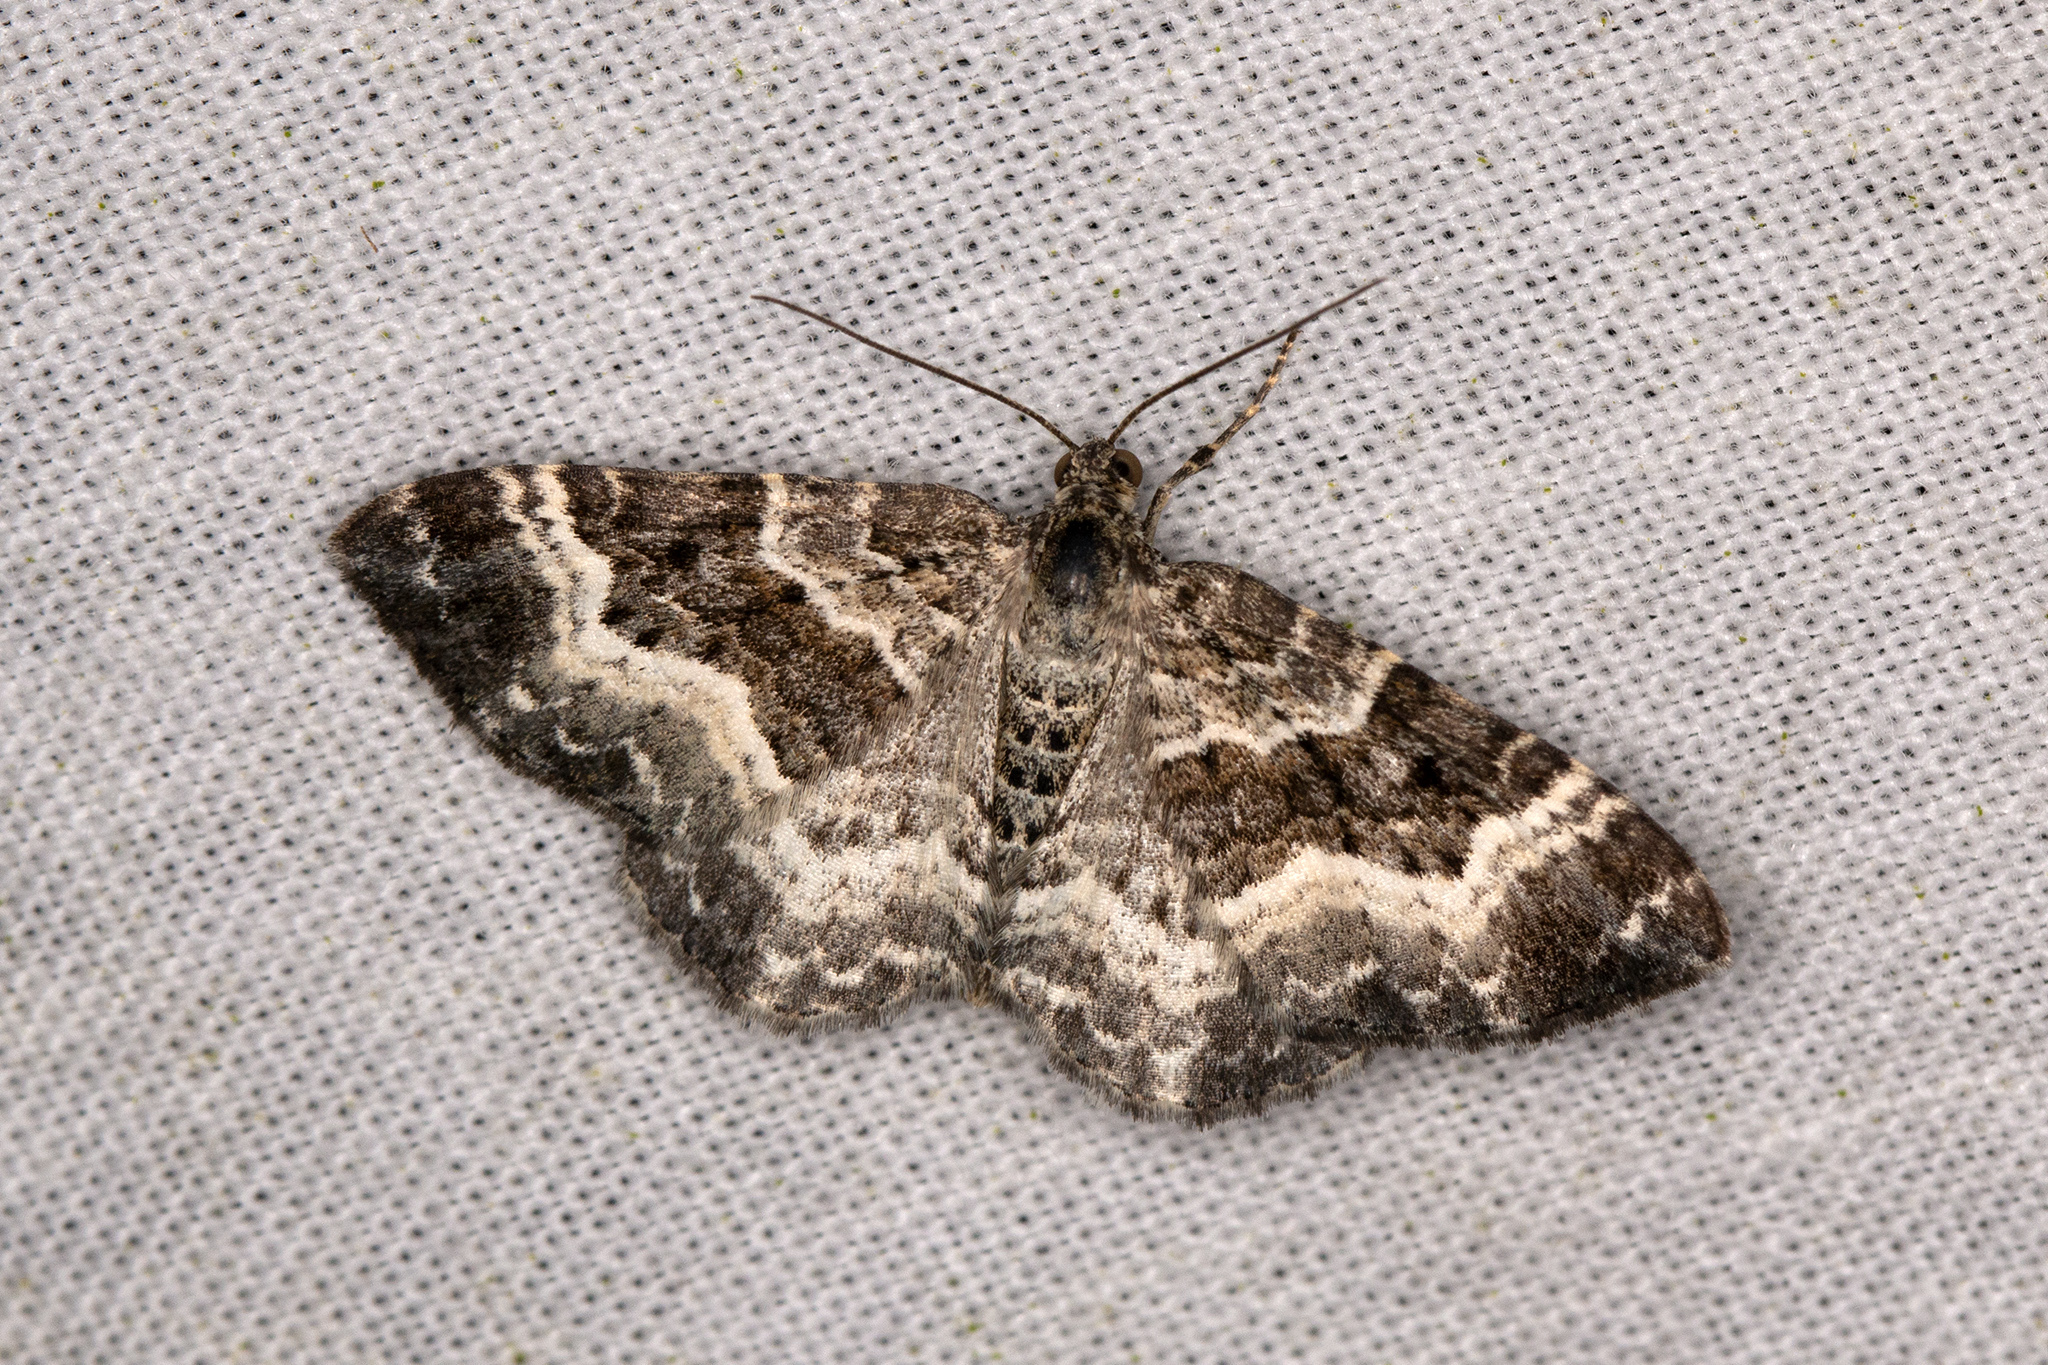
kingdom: Animalia
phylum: Arthropoda
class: Insecta
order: Lepidoptera
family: Geometridae
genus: Epirrhoe
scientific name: Epirrhoe alternata
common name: Common carpet
